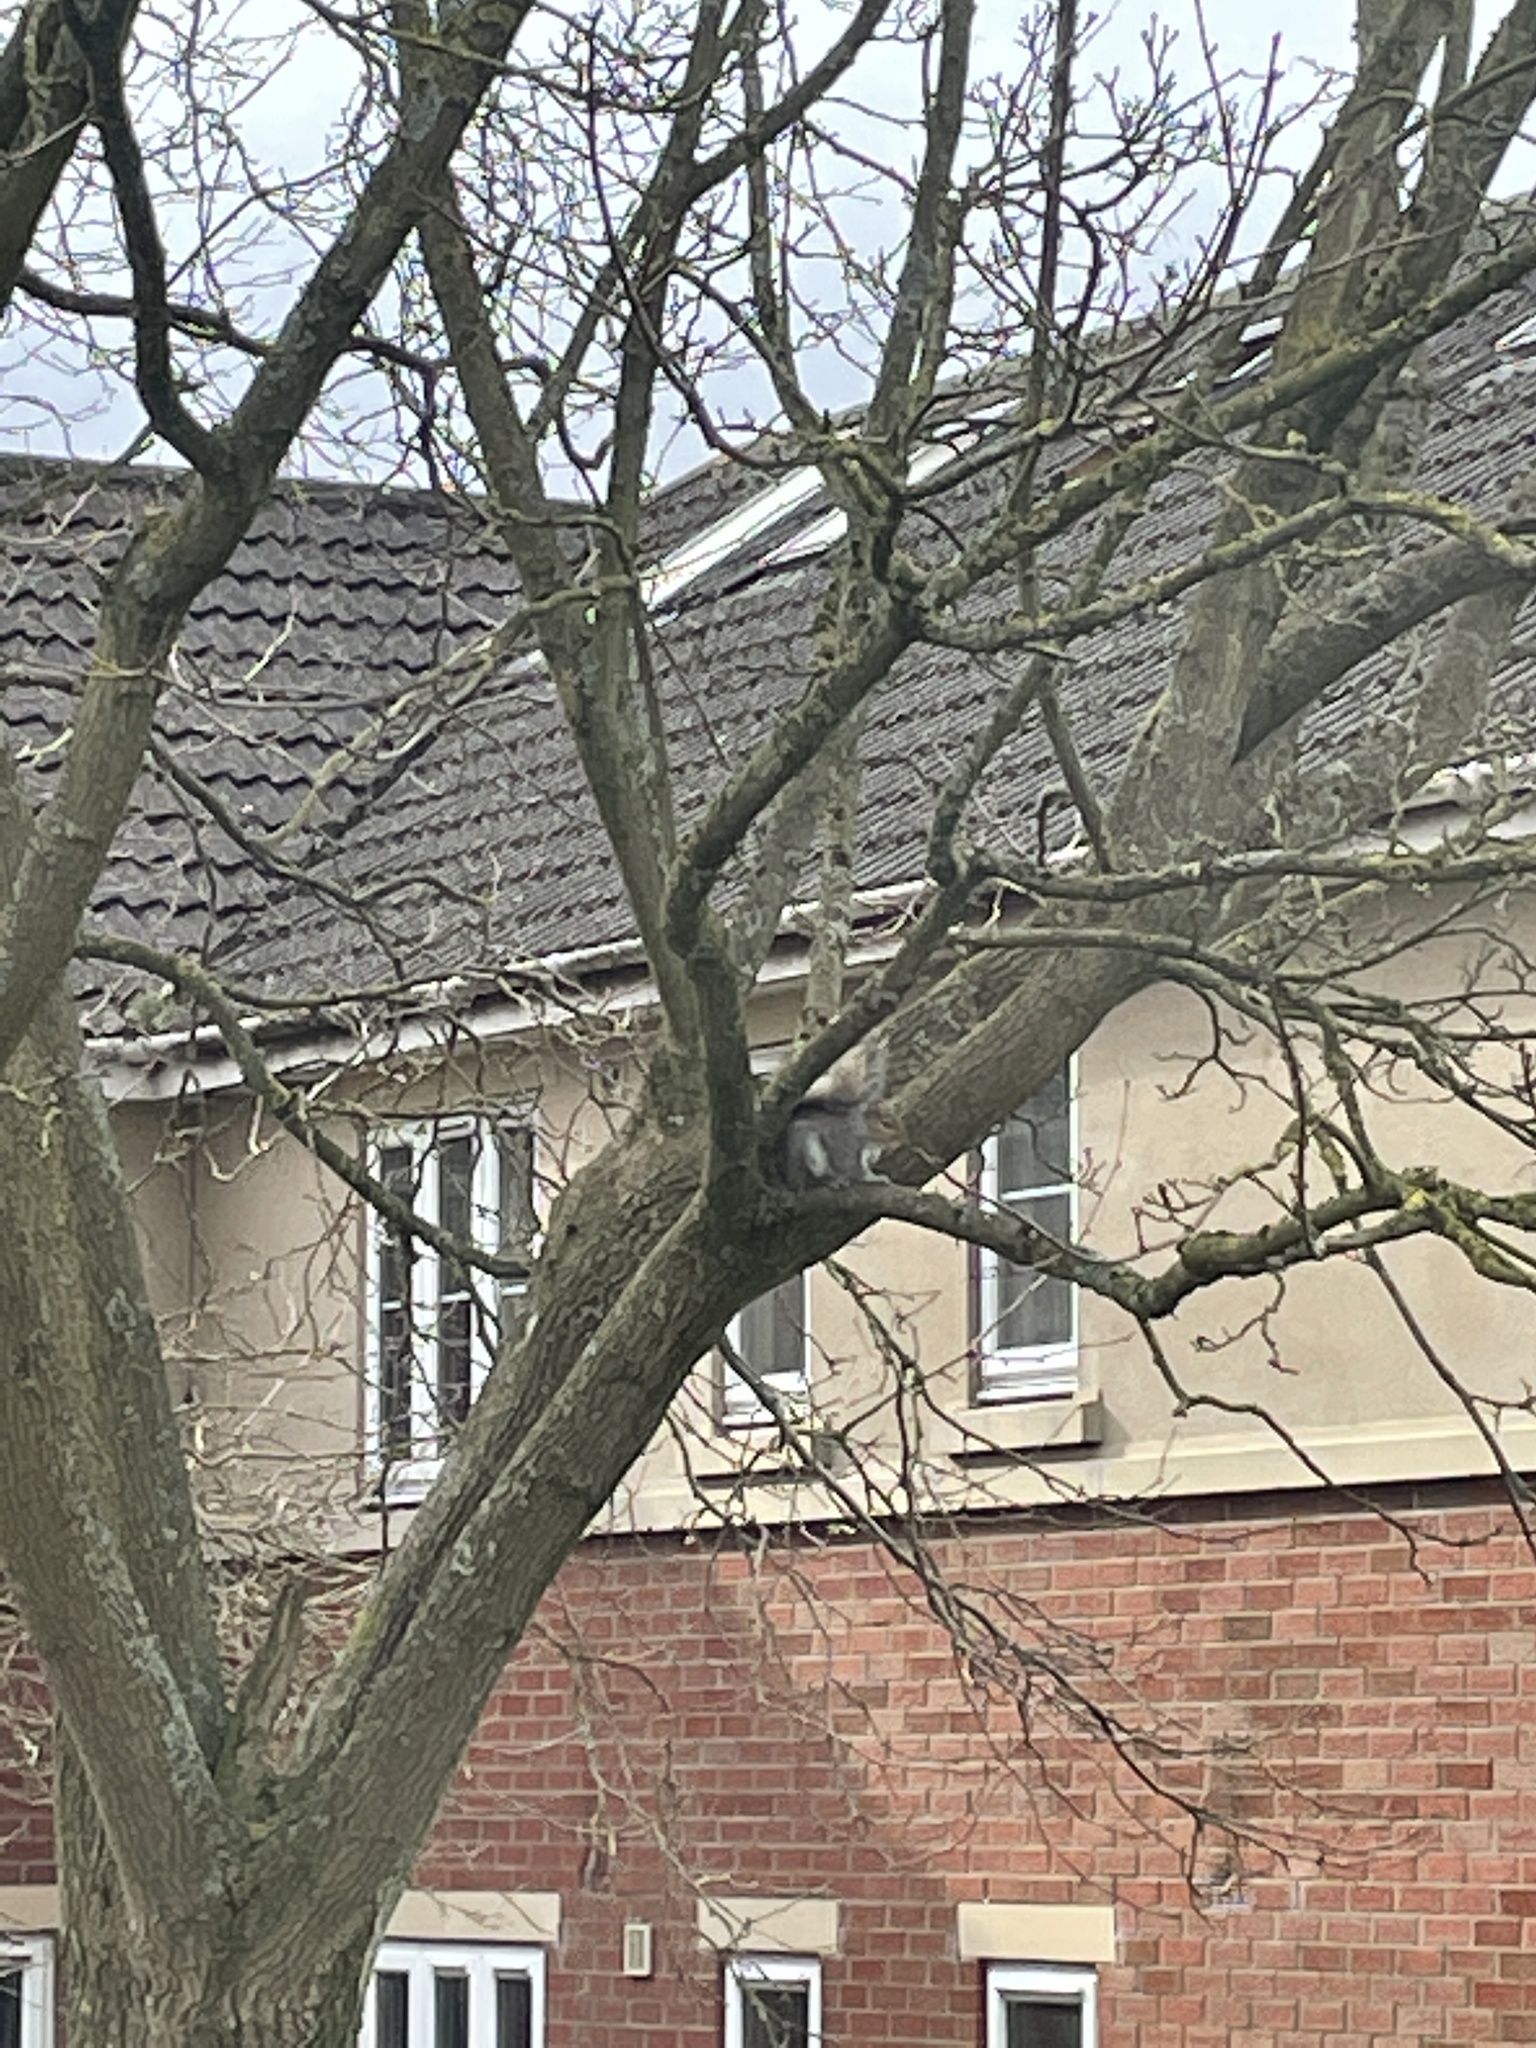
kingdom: Animalia
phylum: Chordata
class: Mammalia
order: Rodentia
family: Sciuridae
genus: Sciurus
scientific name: Sciurus carolinensis
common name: Eastern gray squirrel
